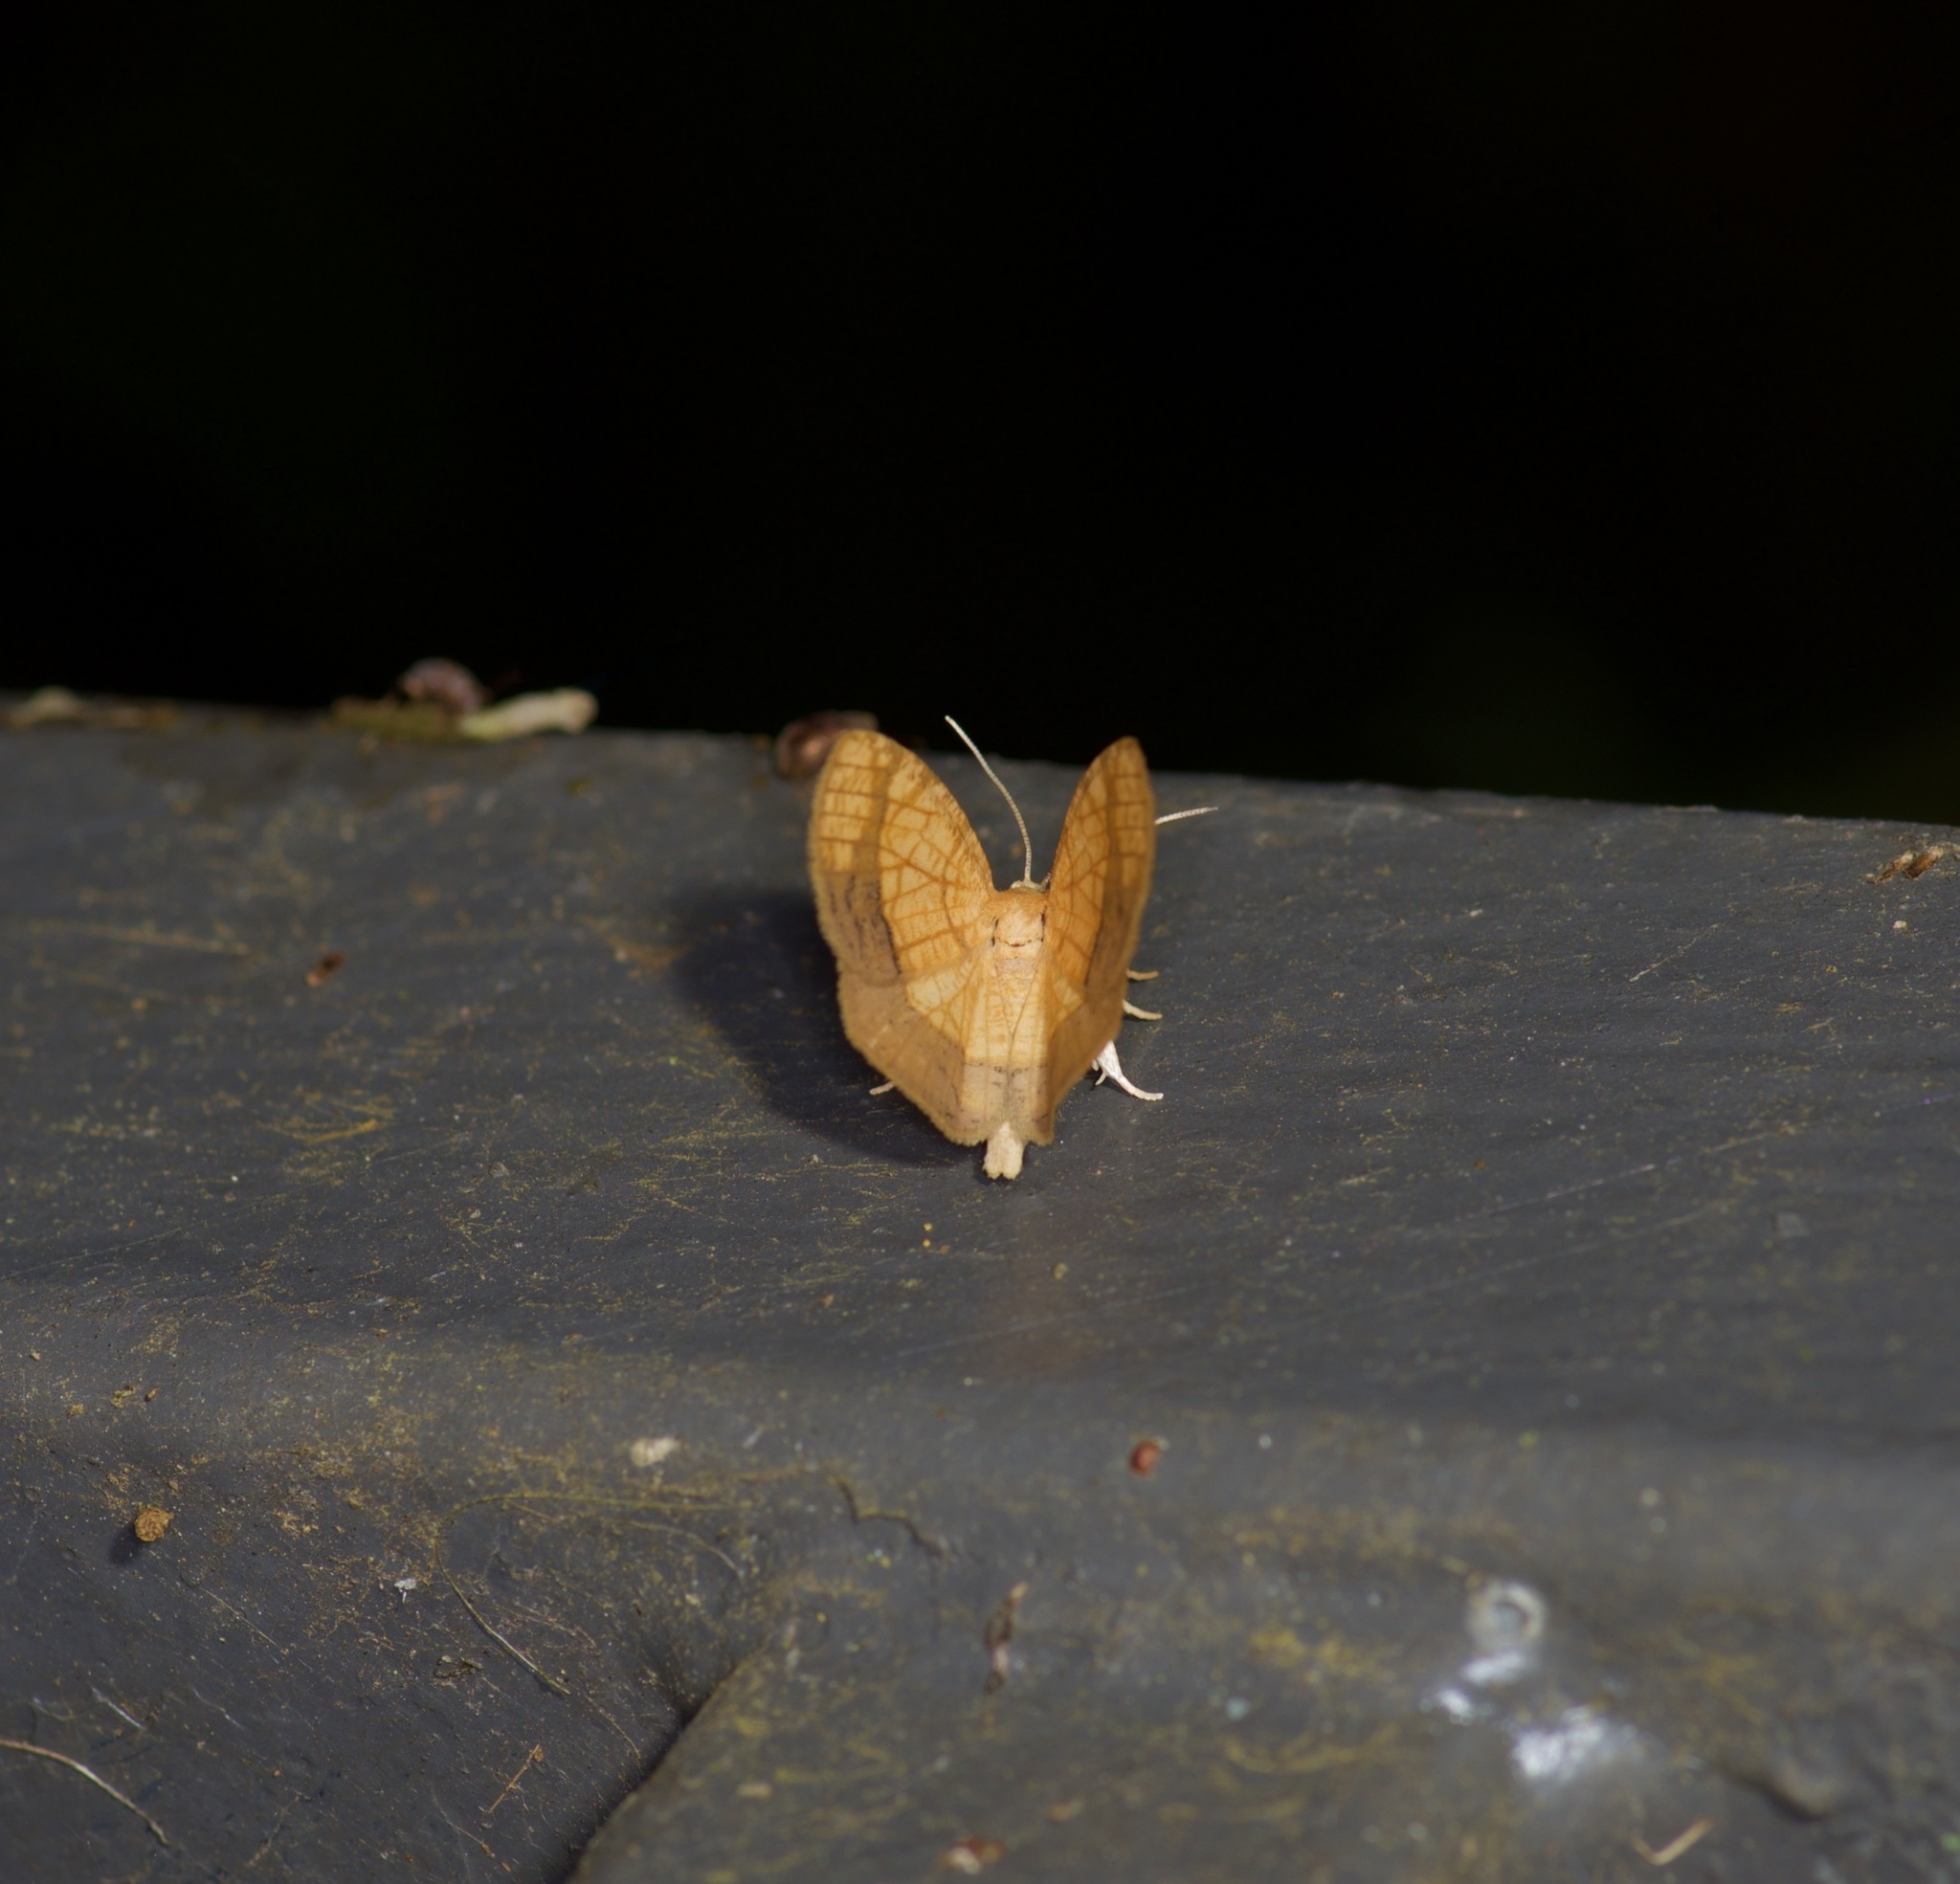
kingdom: Animalia
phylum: Arthropoda
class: Insecta
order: Lepidoptera
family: Geometridae
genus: Nematocampa
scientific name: Nematocampa resistaria
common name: Horned spanworm moth
